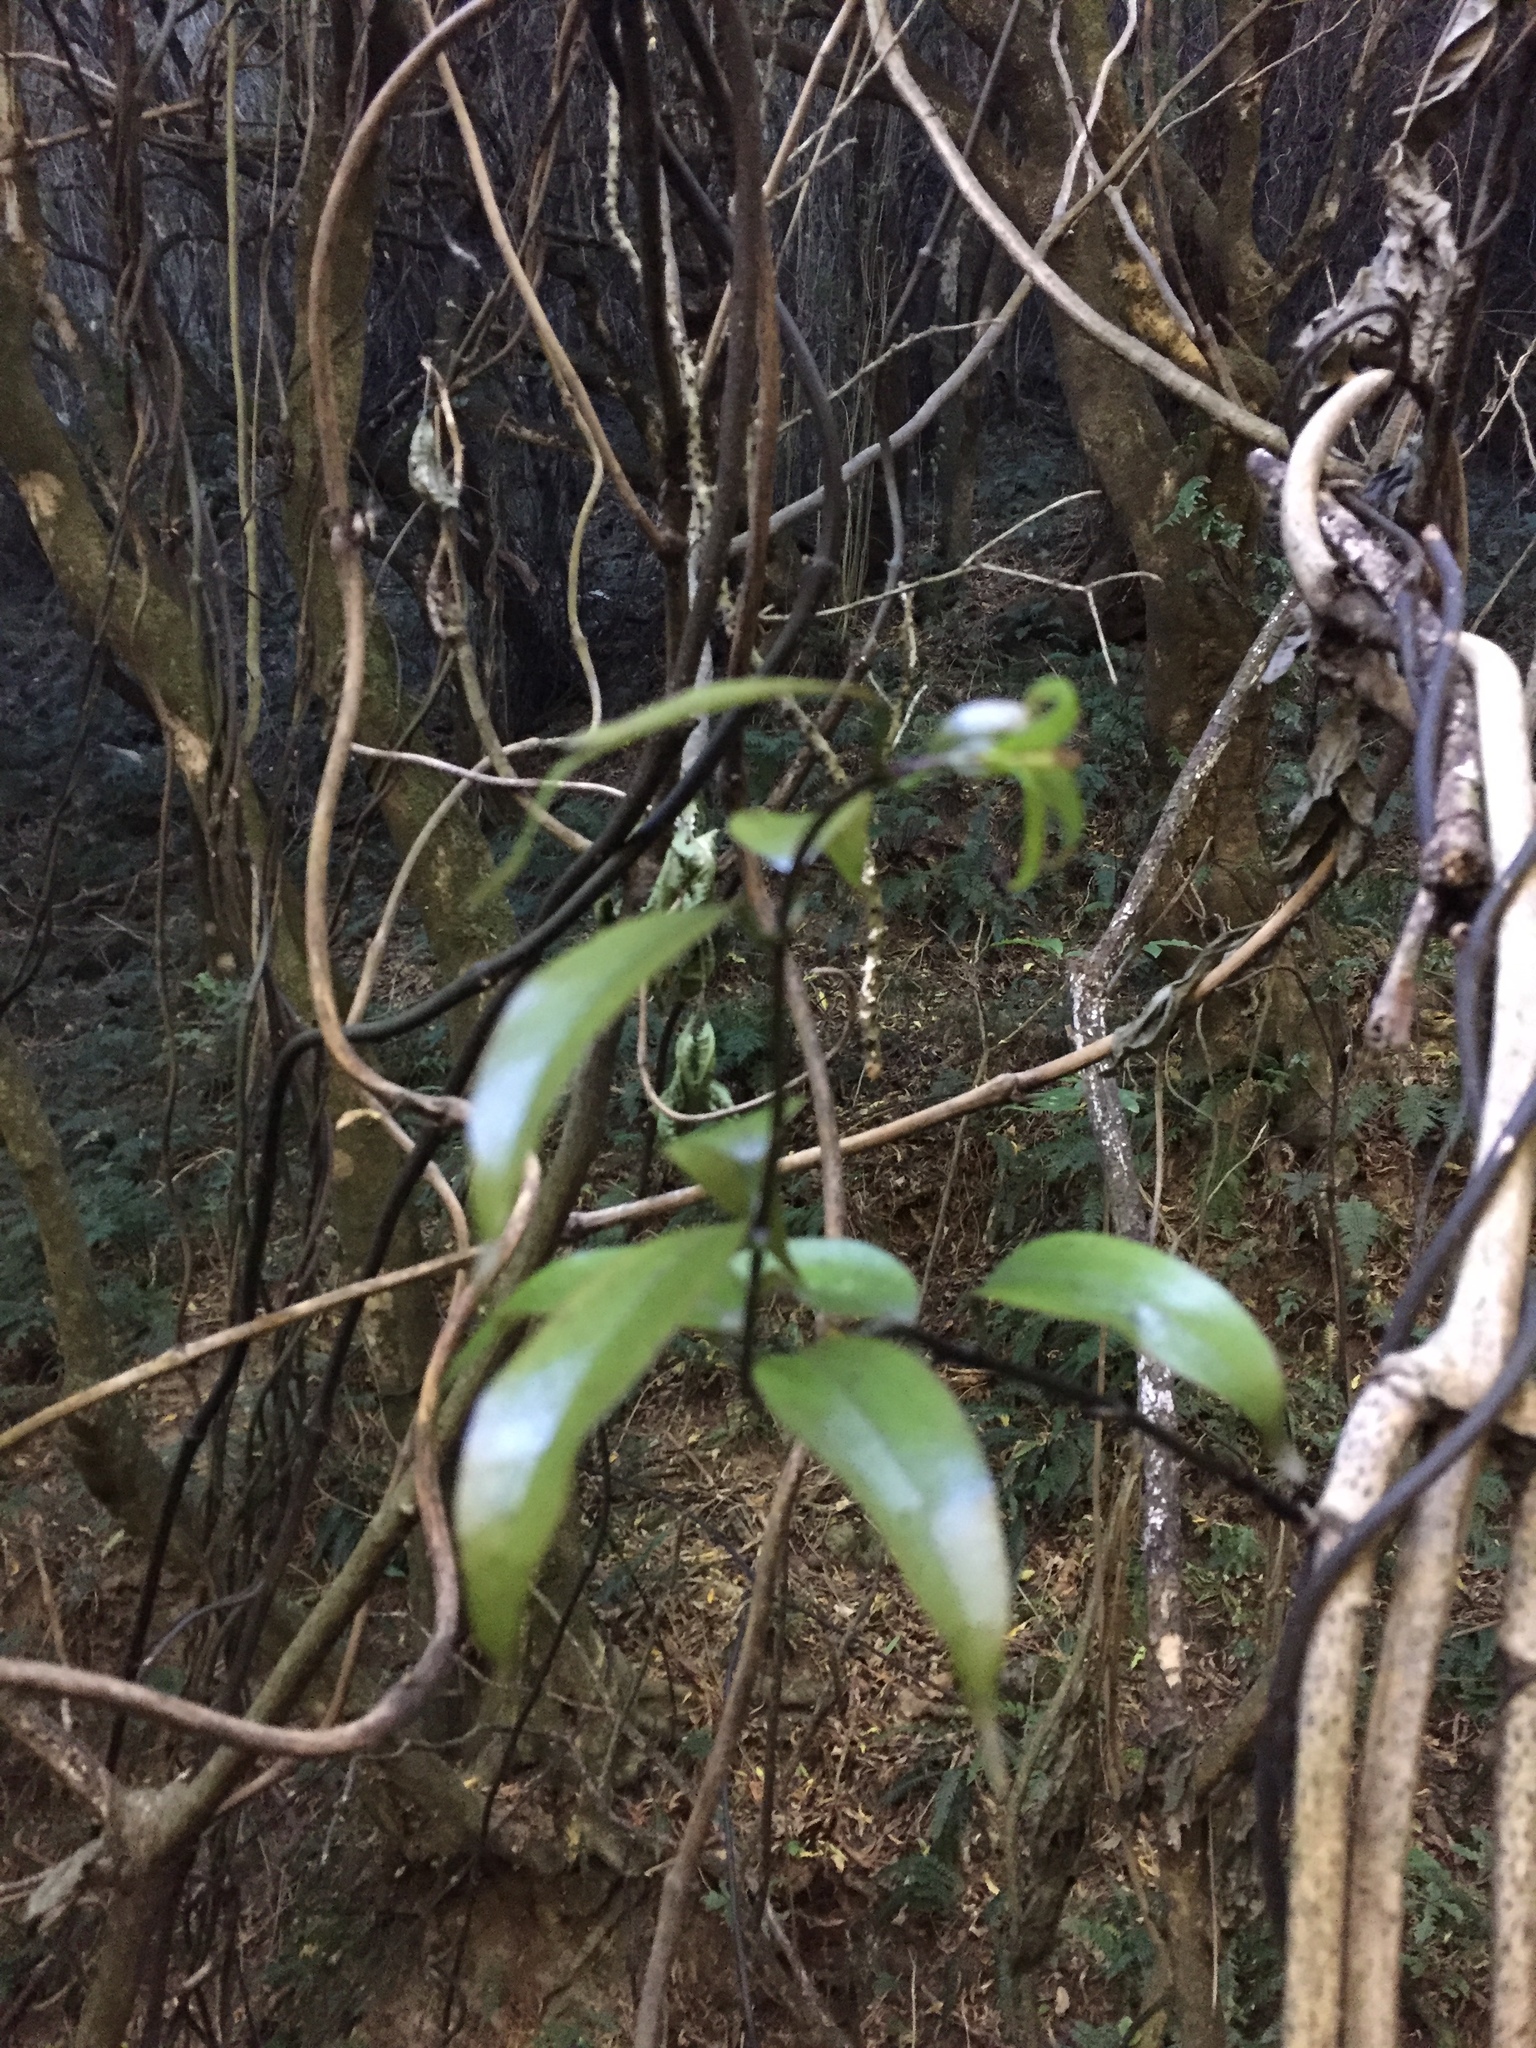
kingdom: Plantae
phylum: Tracheophyta
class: Liliopsida
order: Liliales
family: Ripogonaceae
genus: Ripogonum
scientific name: Ripogonum scandens
